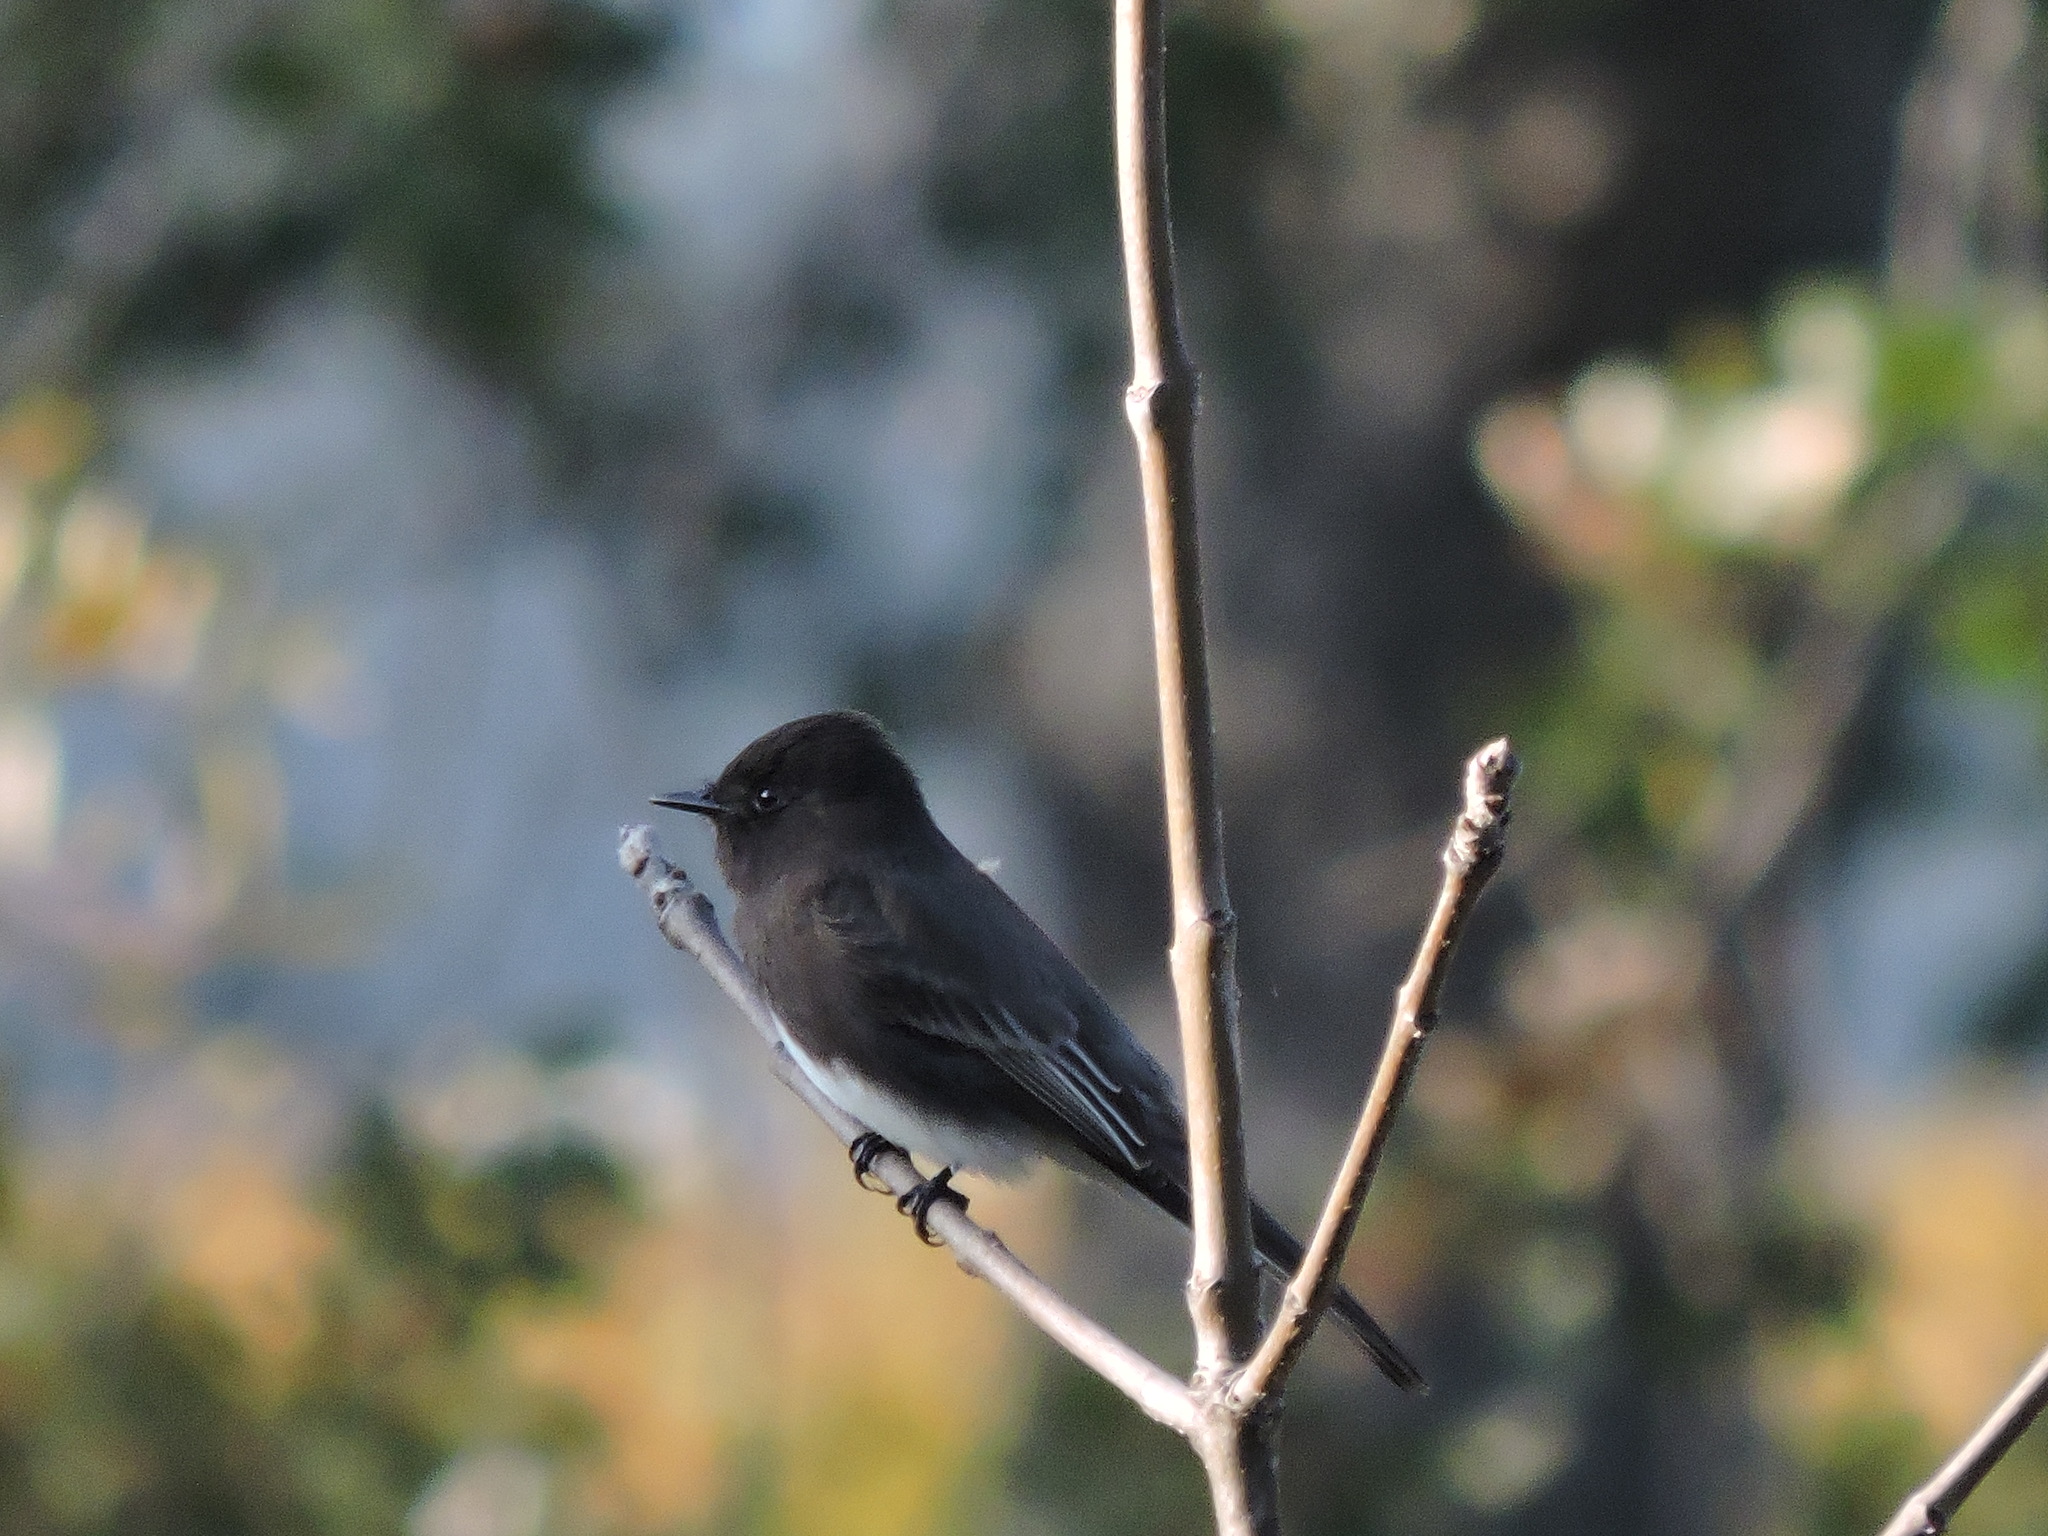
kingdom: Animalia
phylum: Chordata
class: Aves
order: Passeriformes
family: Tyrannidae
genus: Sayornis
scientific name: Sayornis nigricans
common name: Black phoebe
